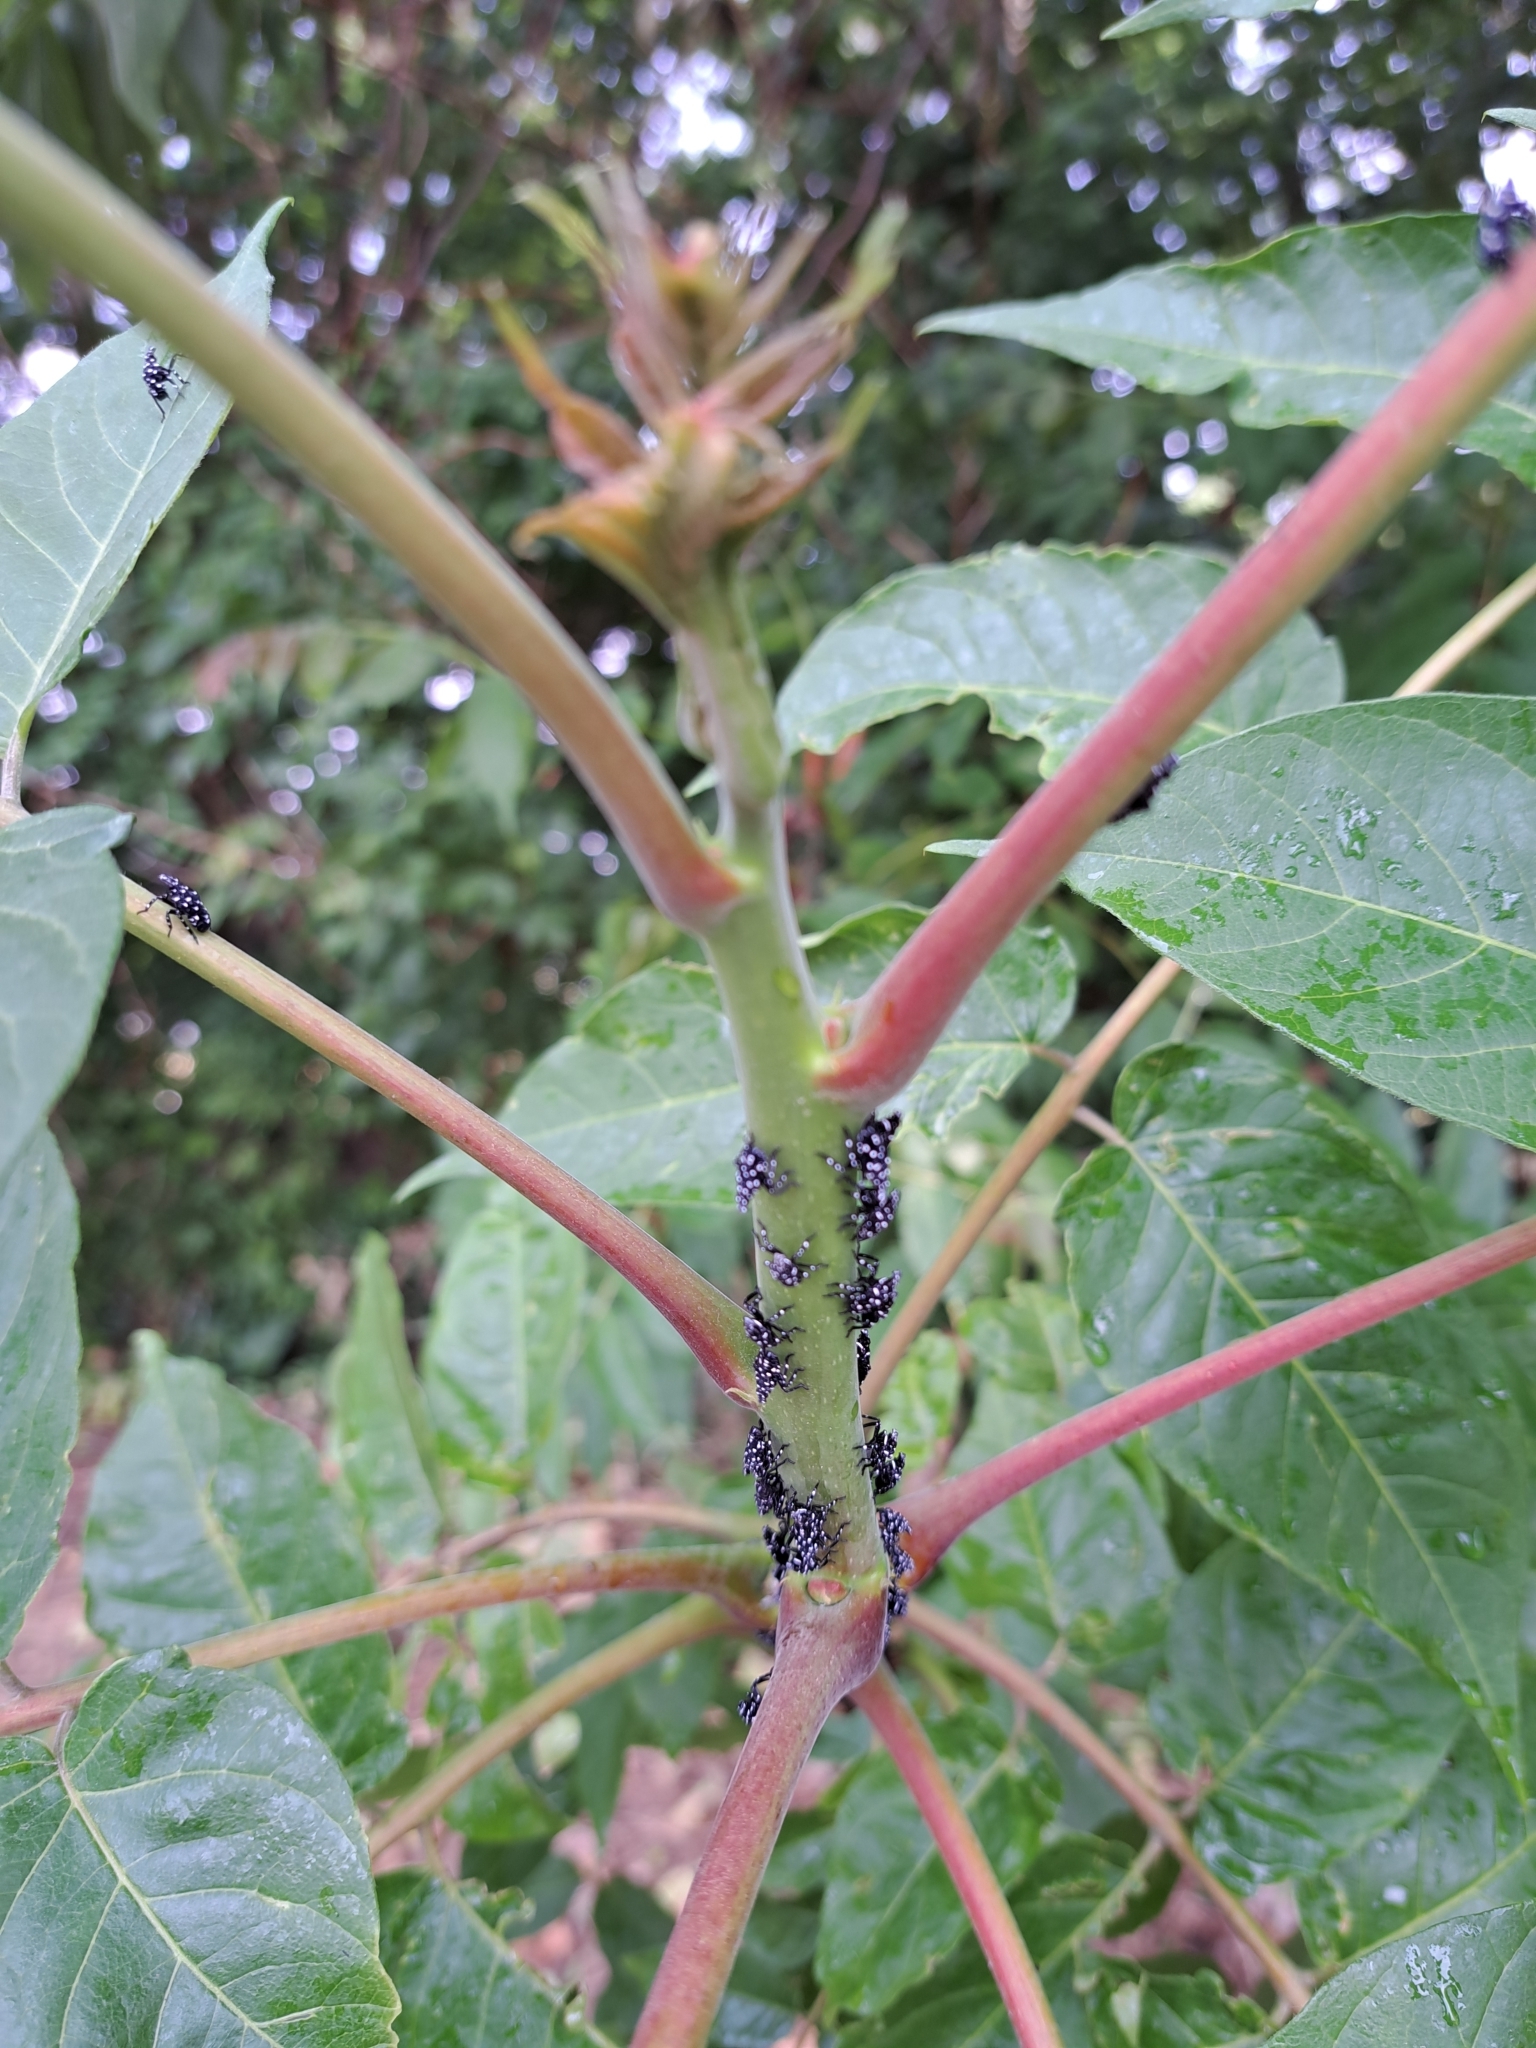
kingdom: Animalia
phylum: Arthropoda
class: Insecta
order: Hemiptera
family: Fulgoridae
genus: Lycorma
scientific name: Lycorma delicatula
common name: Spotted lanternfly
